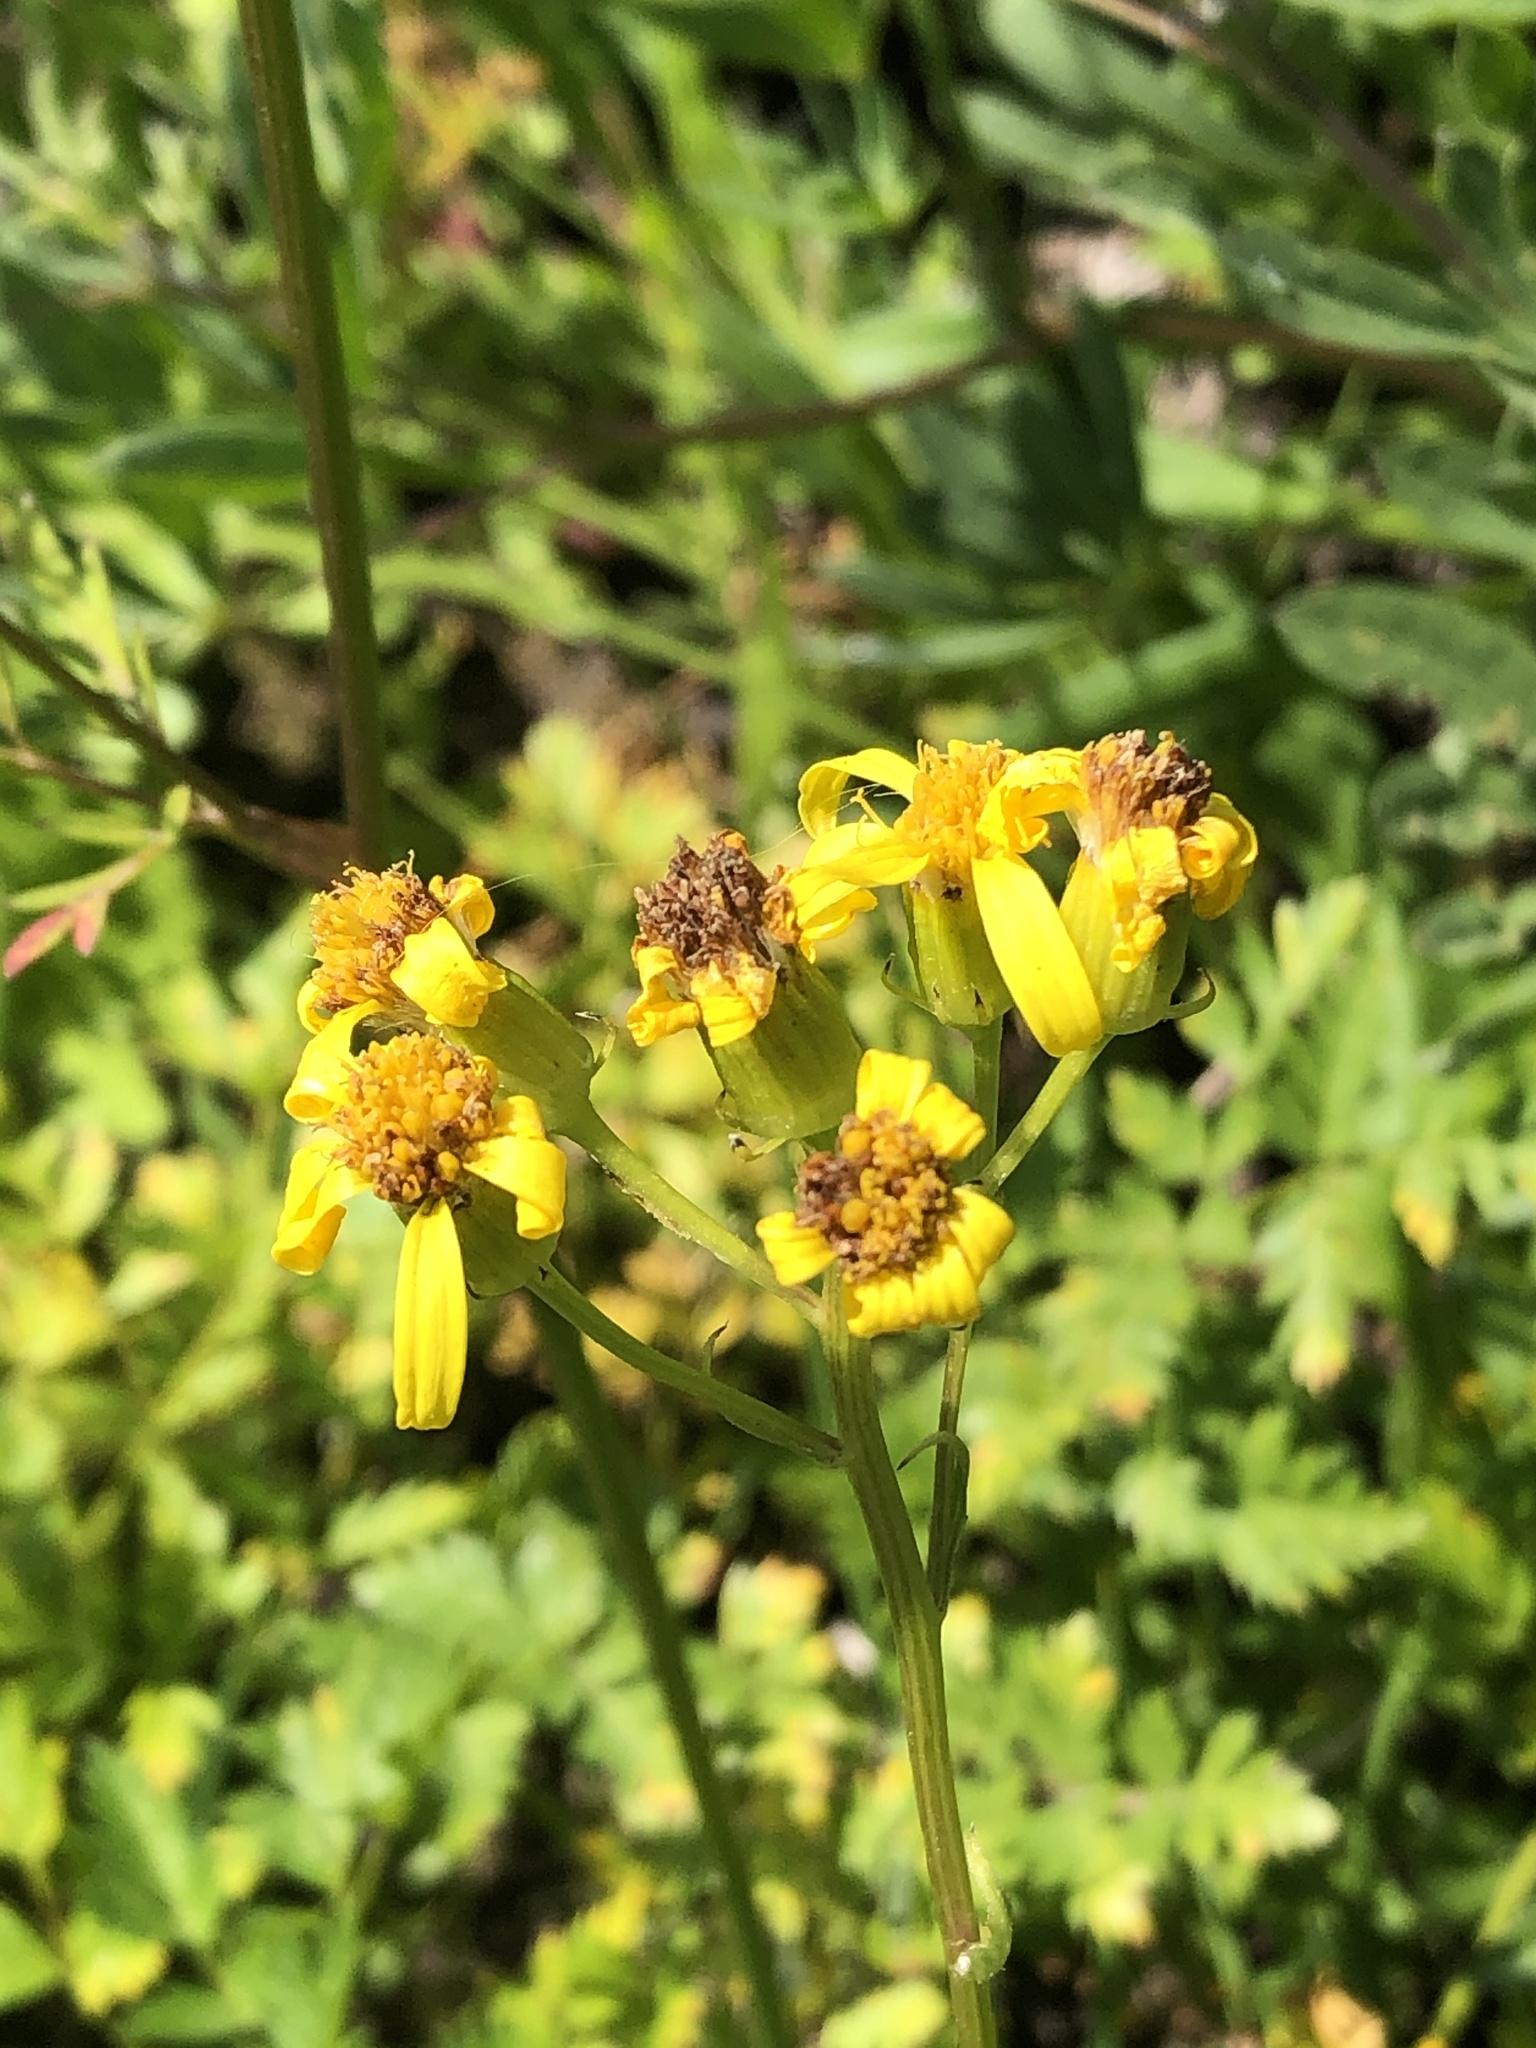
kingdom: Plantae
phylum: Tracheophyta
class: Magnoliopsida
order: Asterales
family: Asteraceae
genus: Senecio
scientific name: Senecio triangularis
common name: Arrowleaf butterweed
